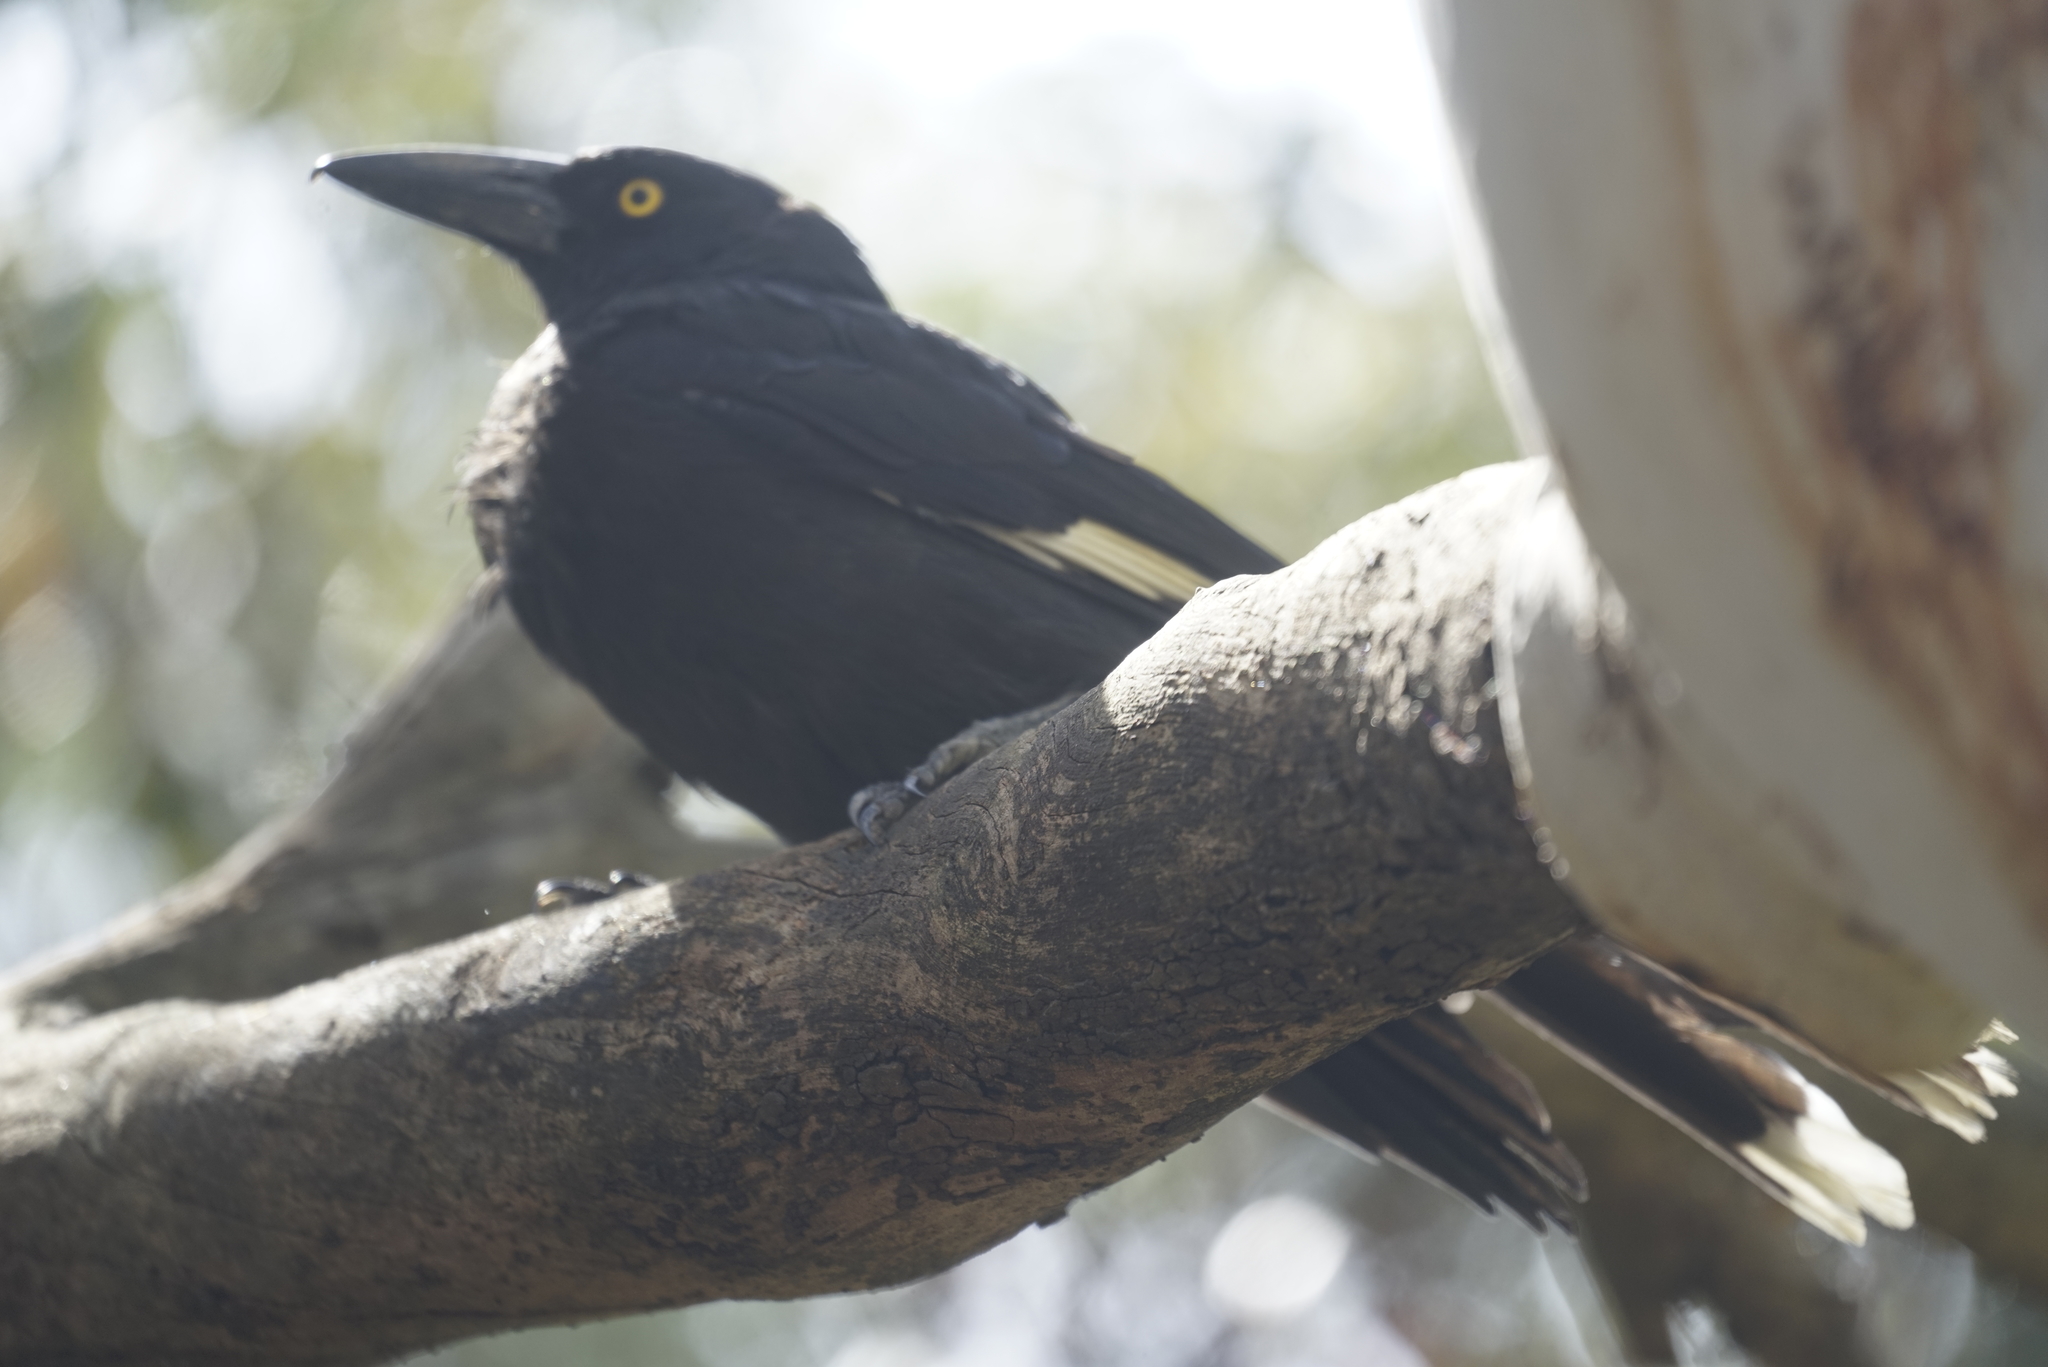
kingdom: Animalia
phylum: Chordata
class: Aves
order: Passeriformes
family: Cracticidae
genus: Strepera
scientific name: Strepera graculina
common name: Pied currawong
